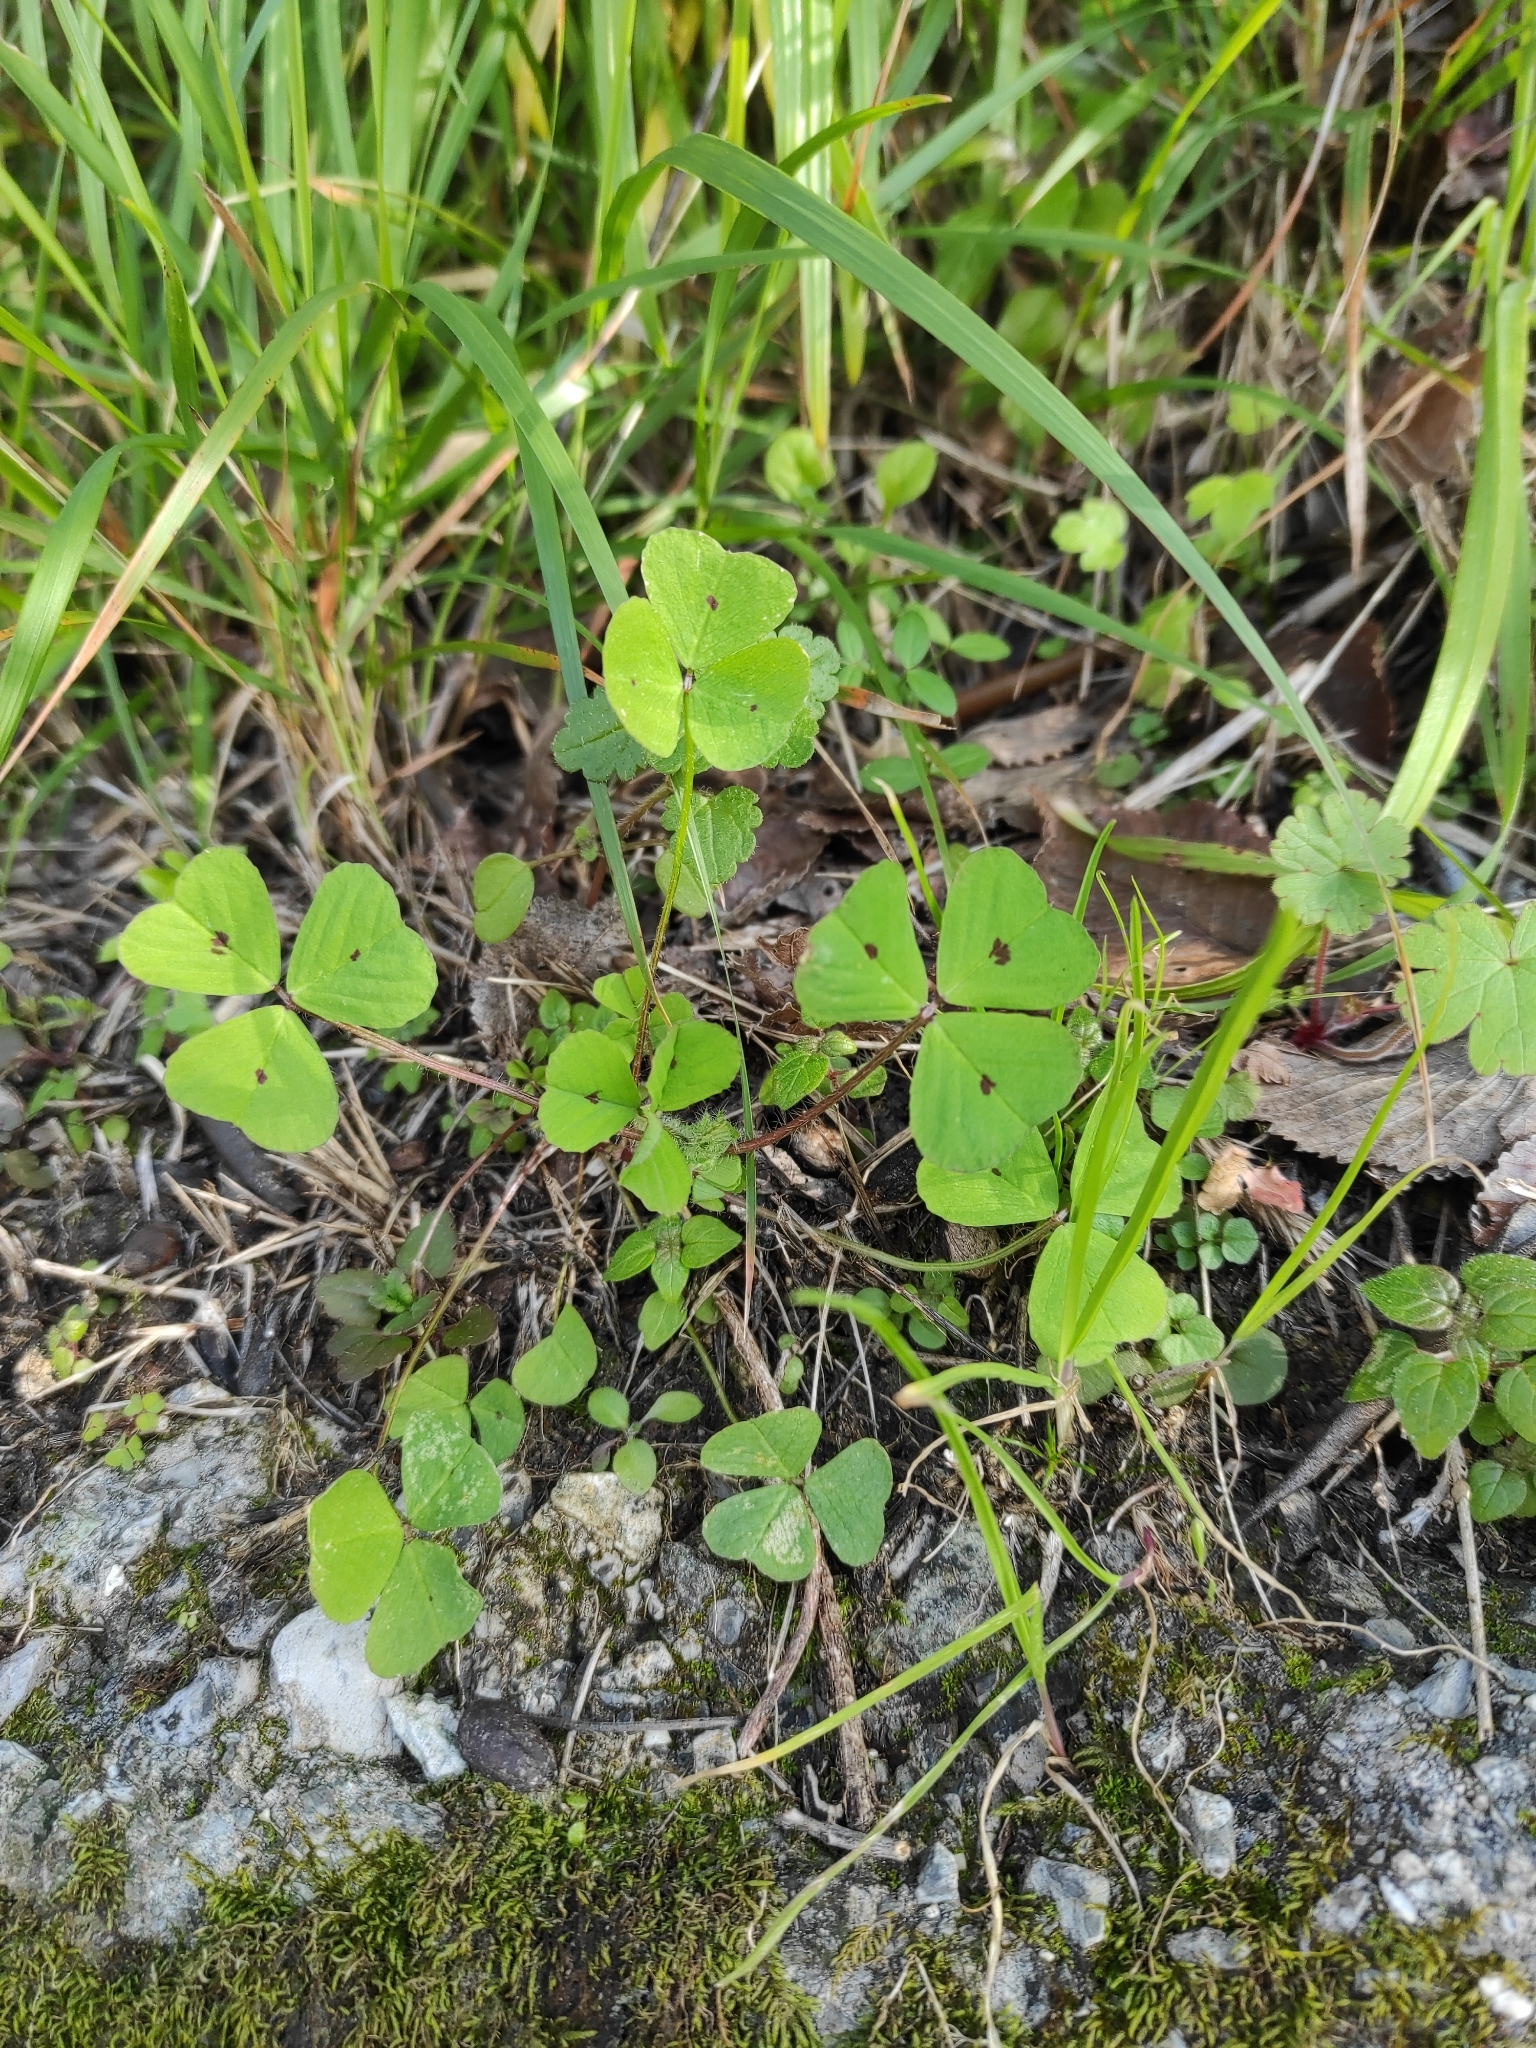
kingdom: Plantae
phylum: Tracheophyta
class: Magnoliopsida
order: Fabales
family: Fabaceae
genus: Medicago
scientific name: Medicago arabica
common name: Spotted medick
